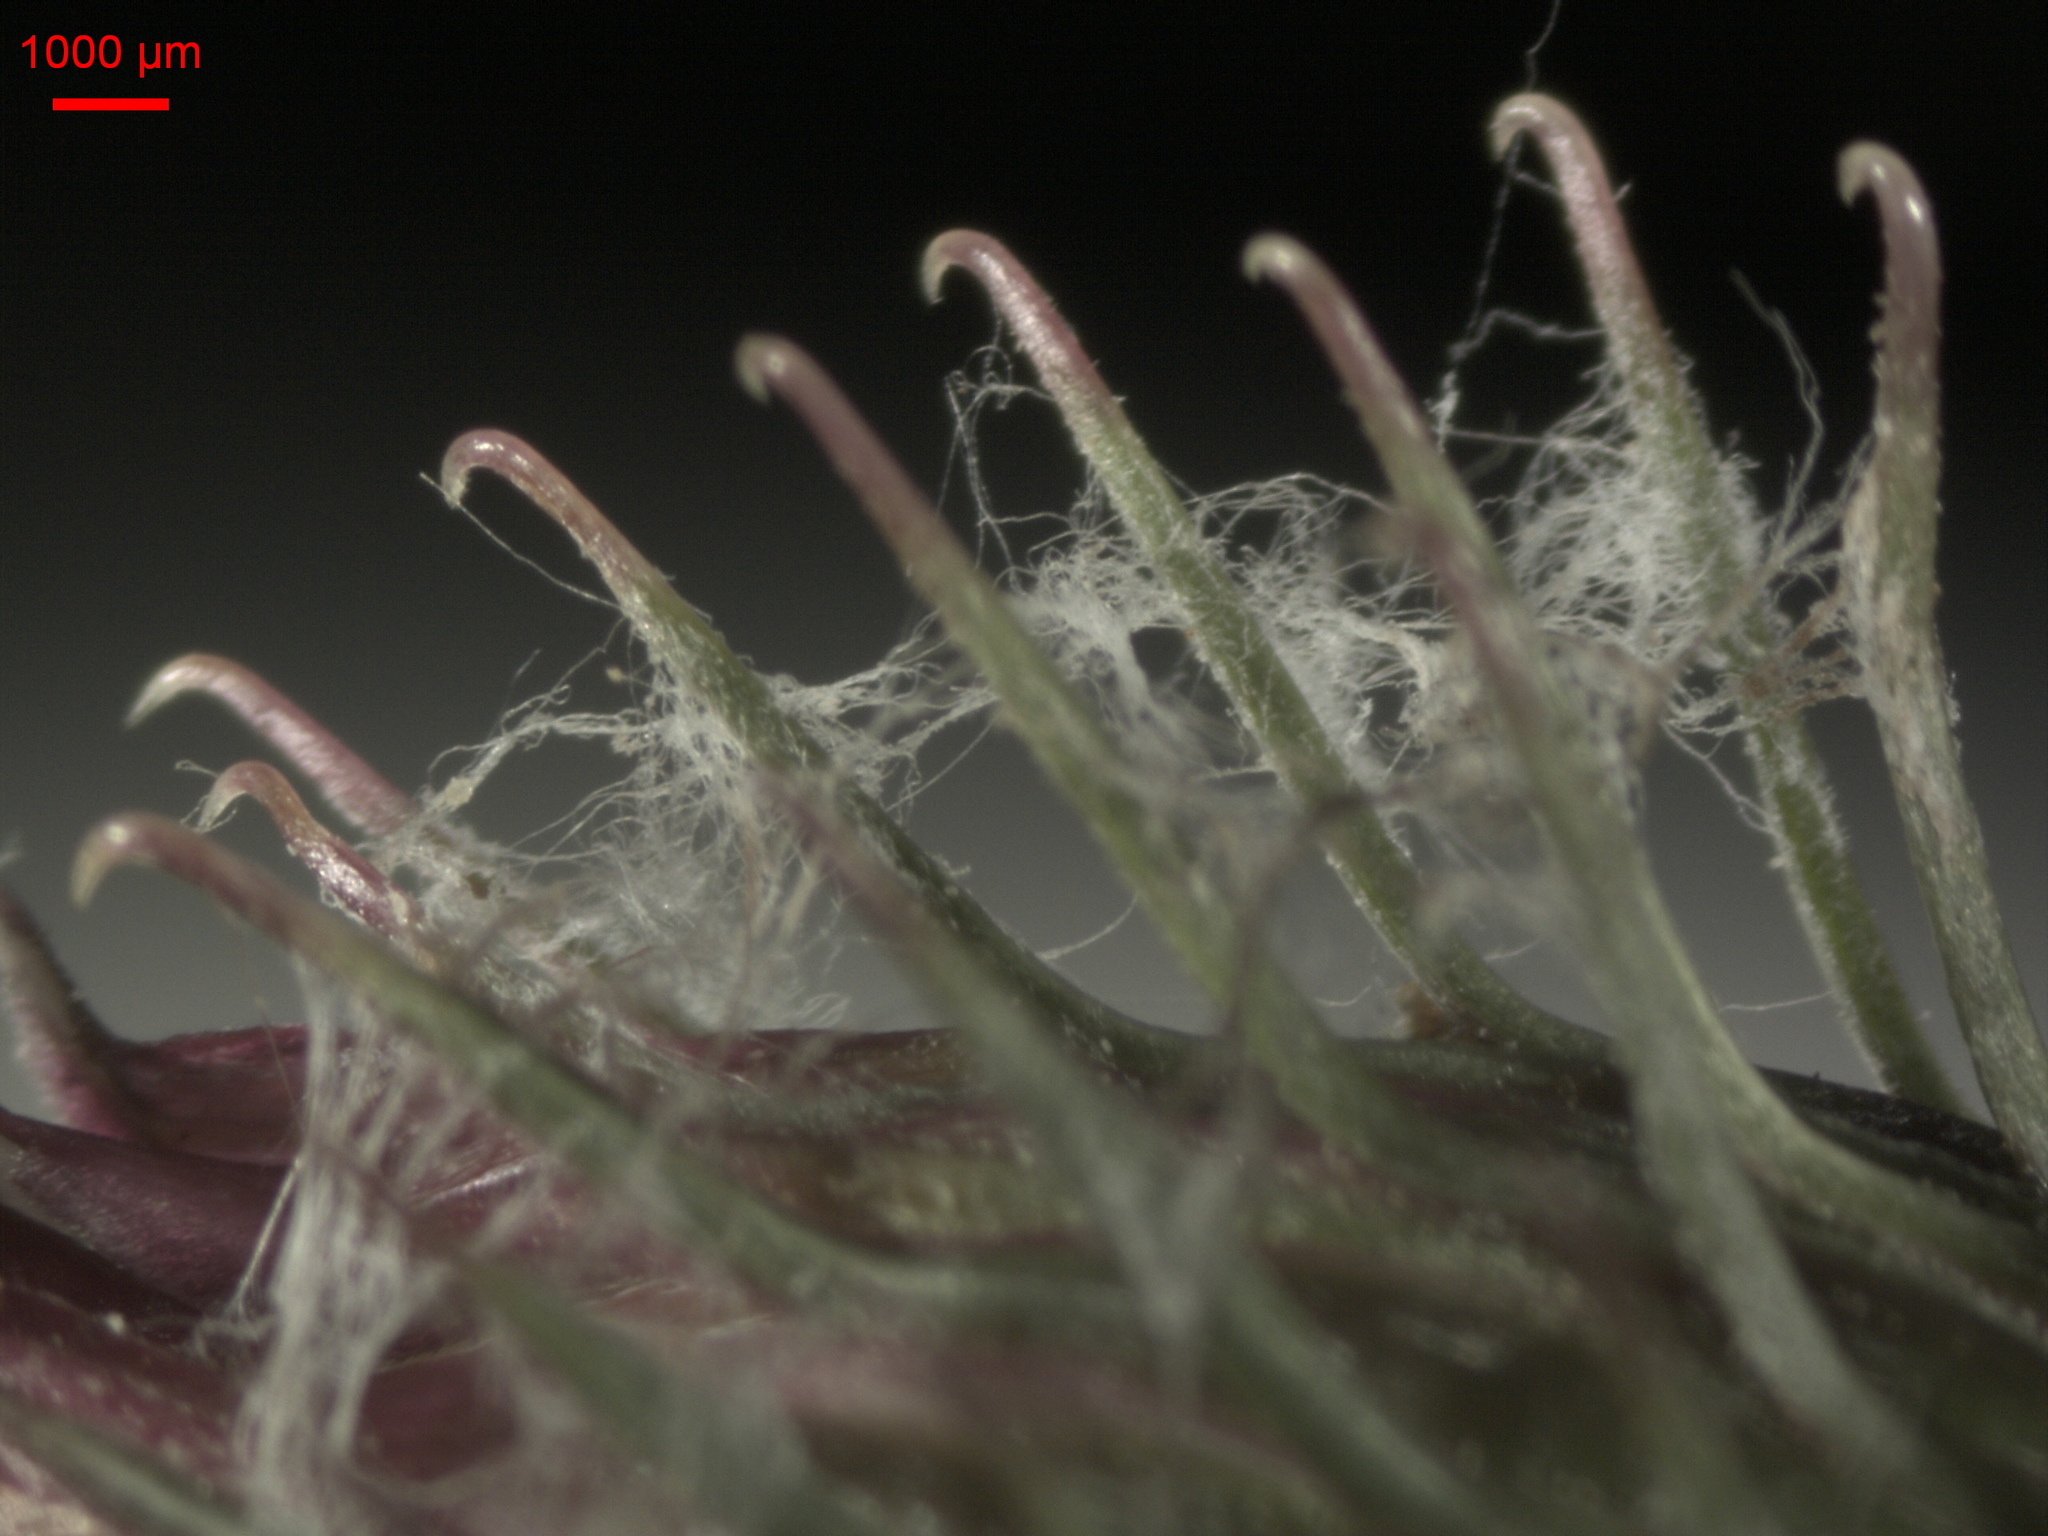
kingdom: Plantae
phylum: Tracheophyta
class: Magnoliopsida
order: Asterales
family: Asteraceae
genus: Arctium
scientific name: Arctium tomentosum
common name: Woolly burdock
